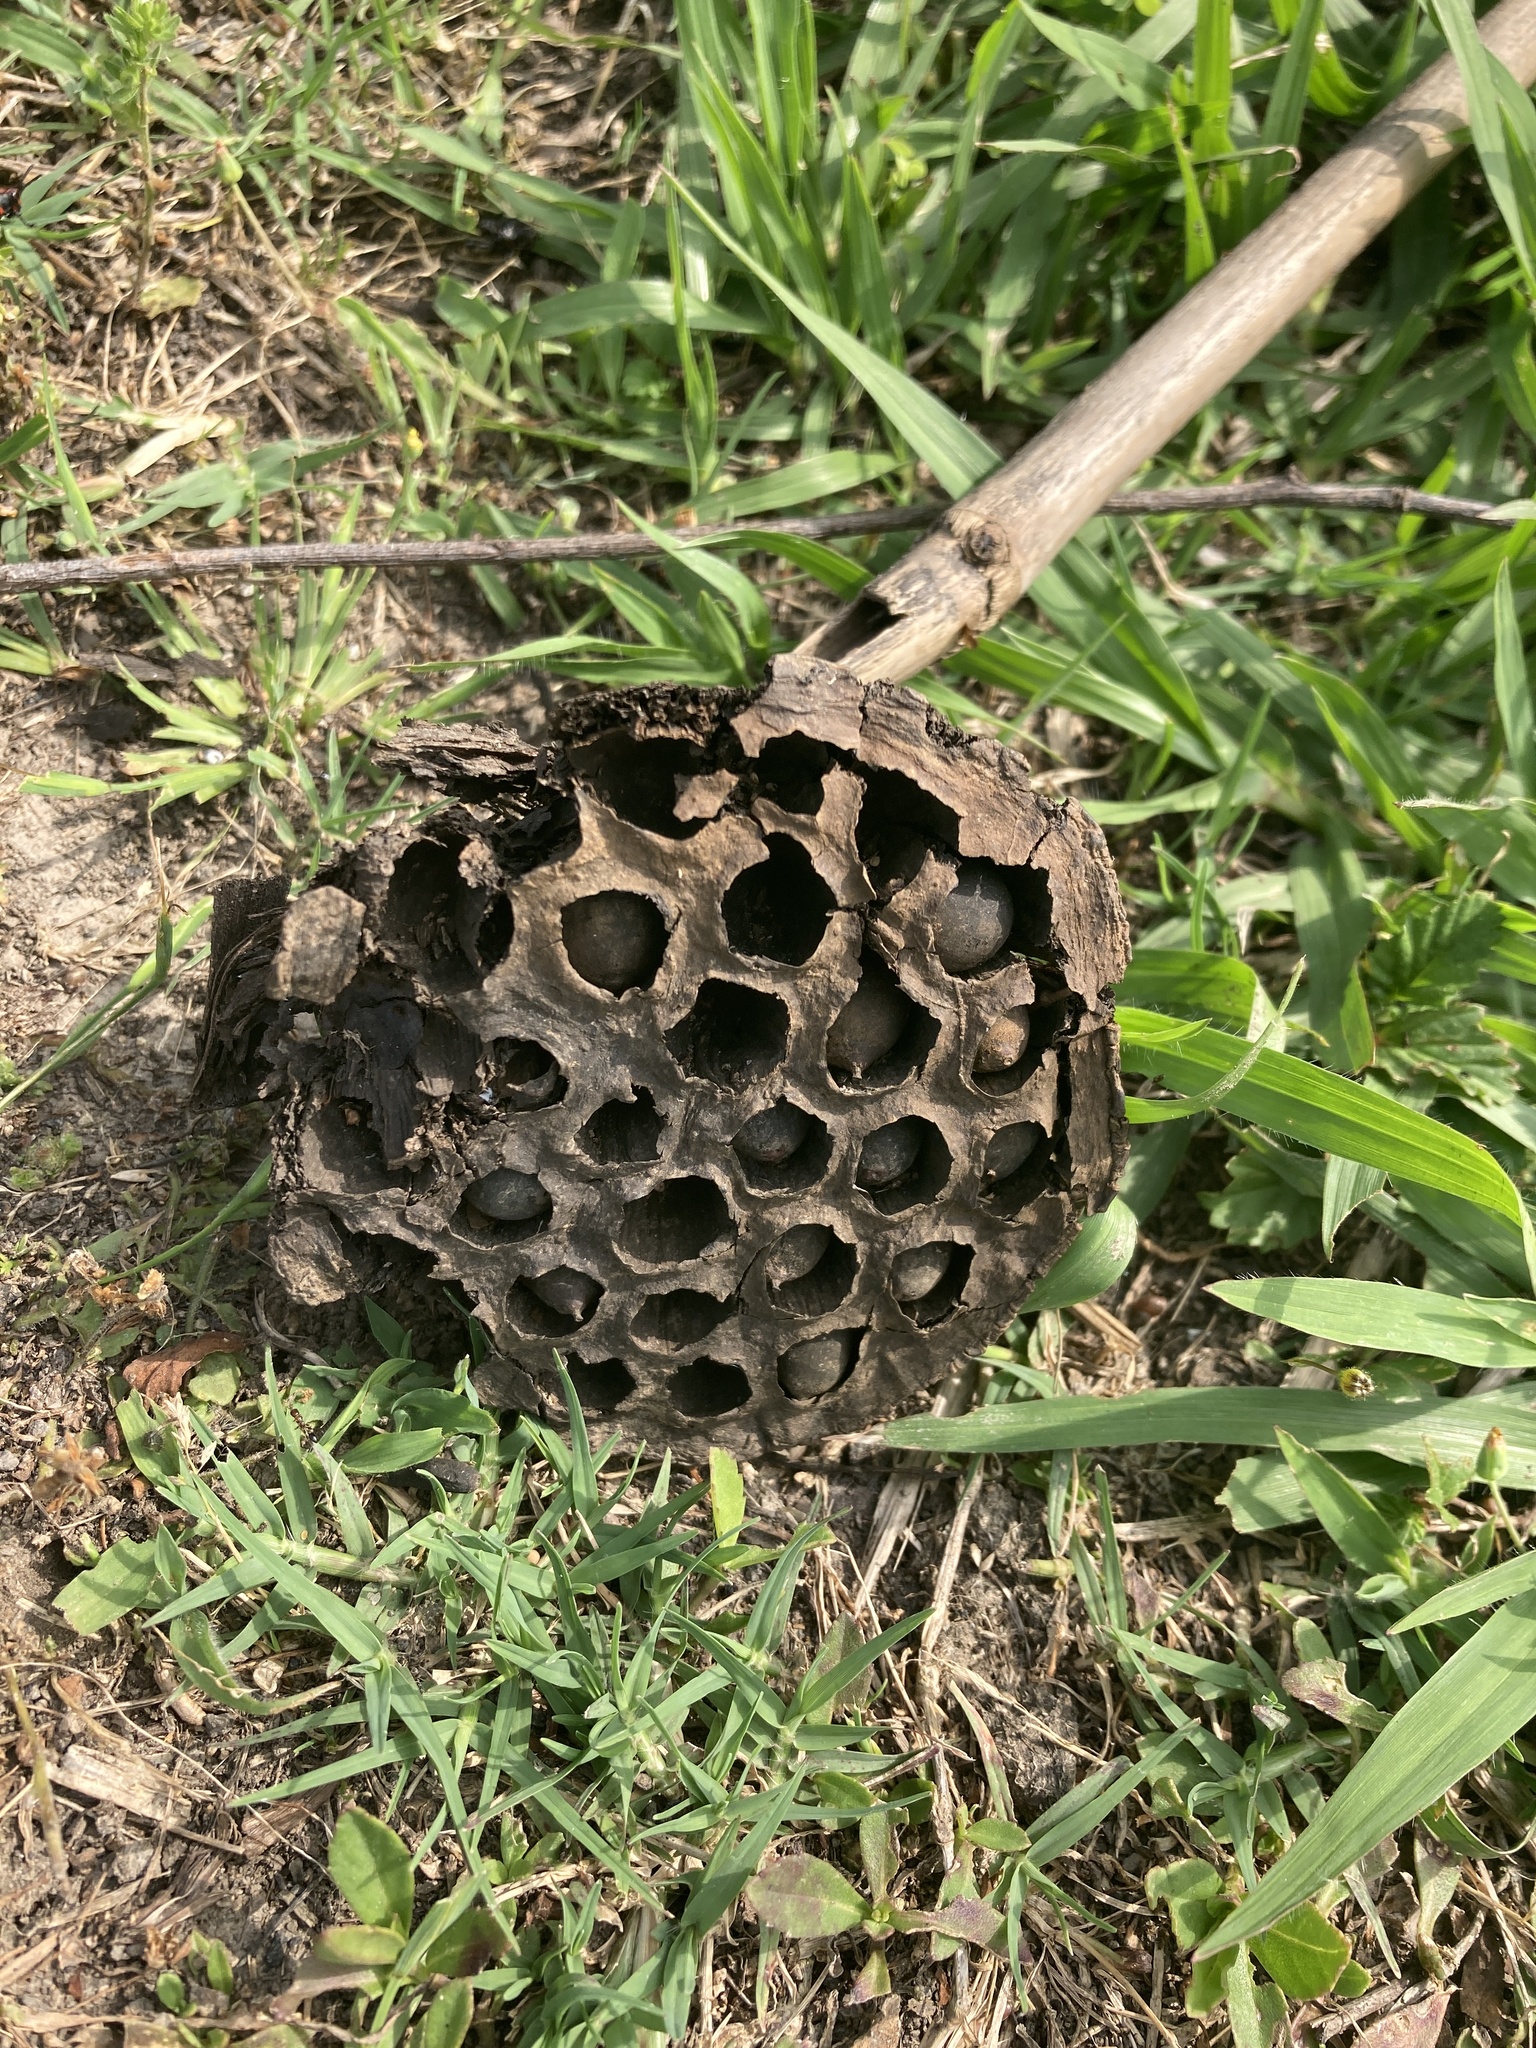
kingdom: Plantae
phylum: Tracheophyta
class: Magnoliopsida
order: Proteales
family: Nelumbonaceae
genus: Nelumbo
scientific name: Nelumbo lutea
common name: American lotus
